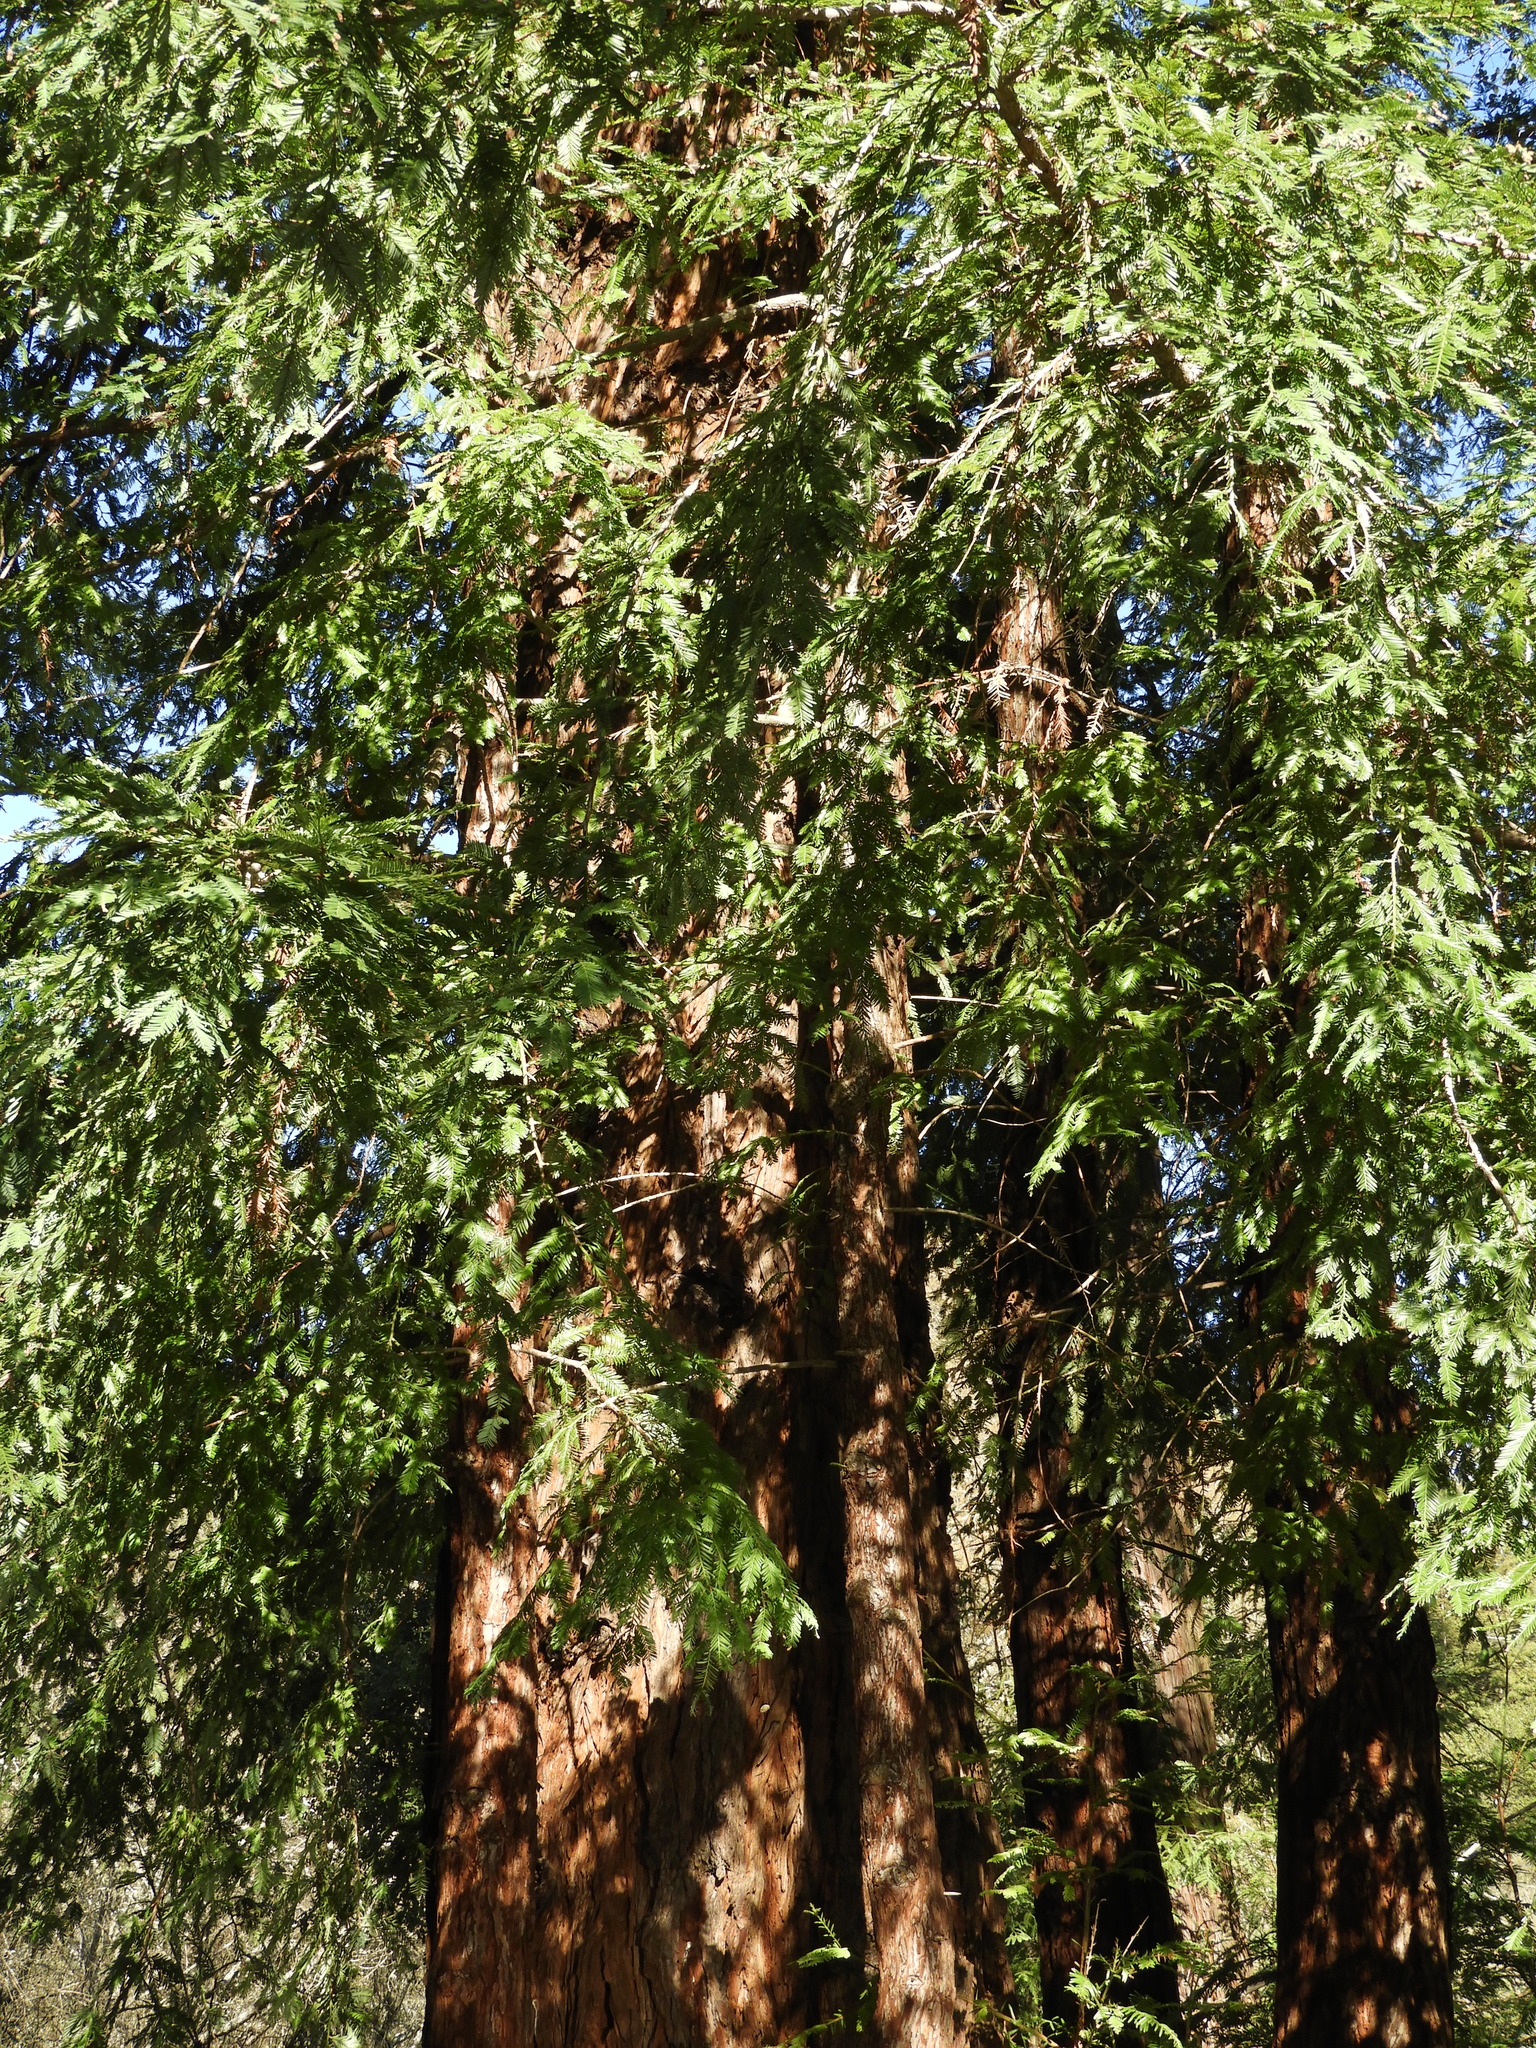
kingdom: Plantae
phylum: Tracheophyta
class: Pinopsida
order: Pinales
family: Cupressaceae
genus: Sequoia
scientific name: Sequoia sempervirens
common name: Coast redwood
